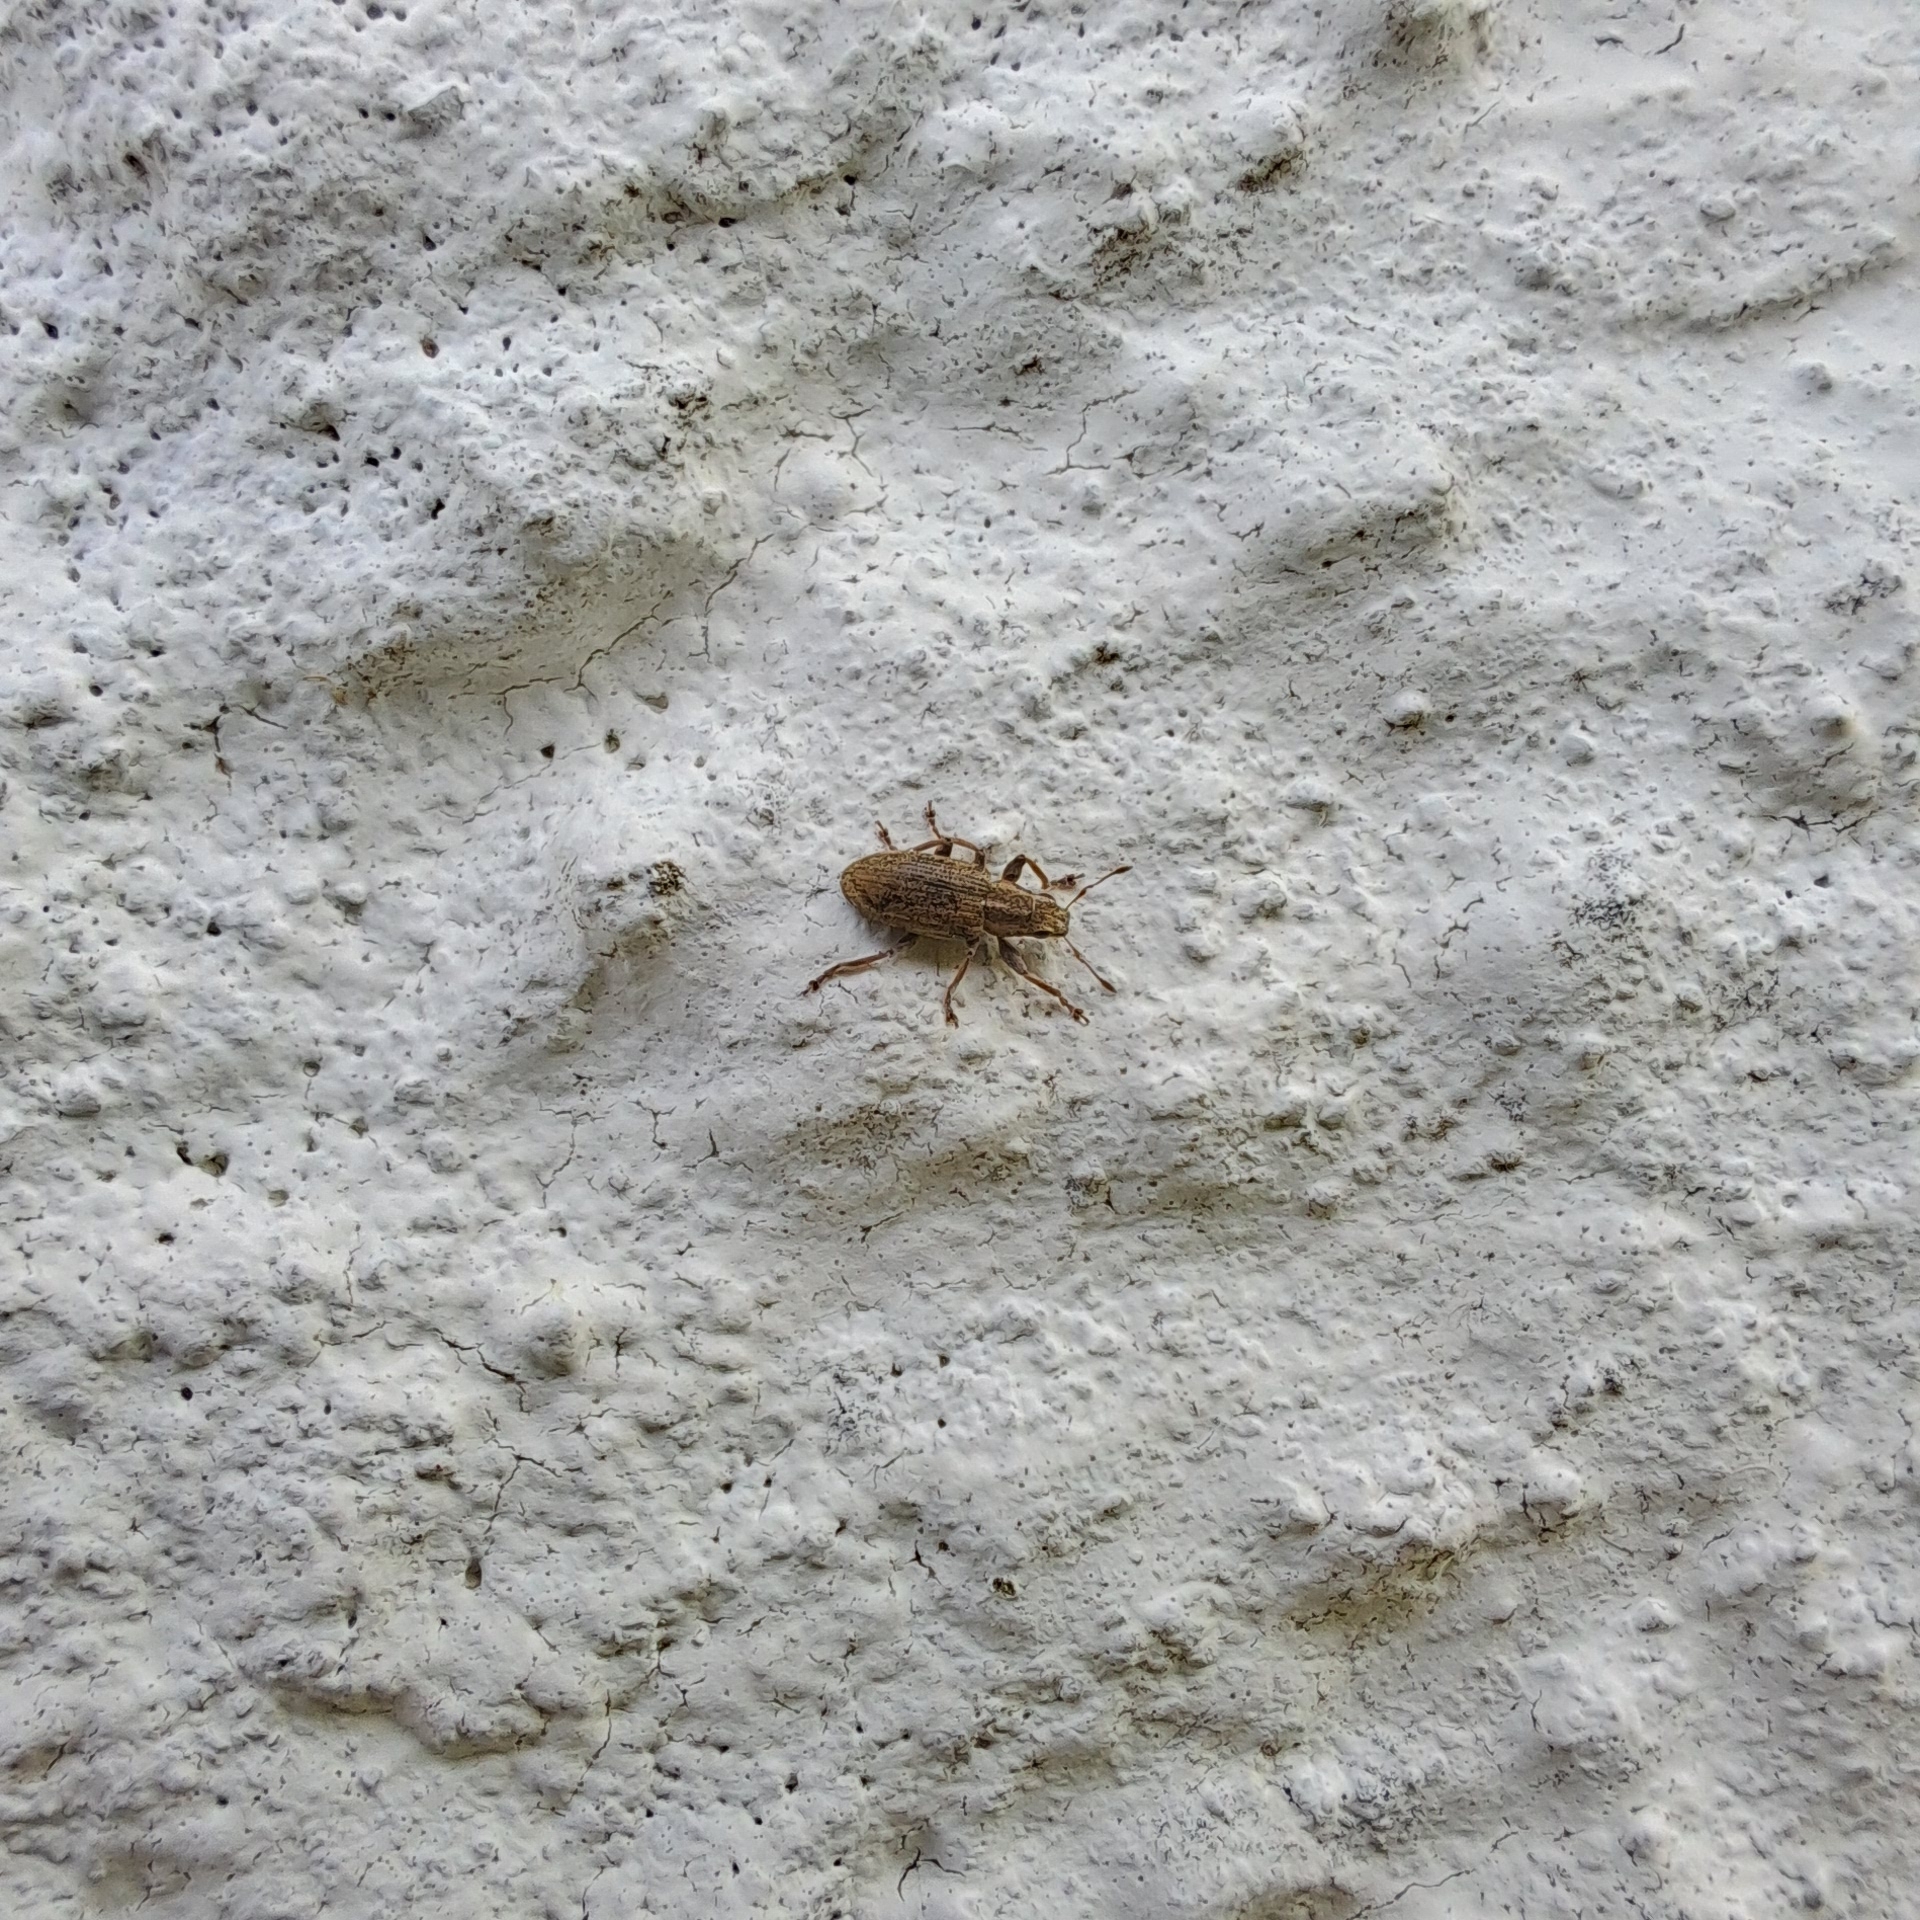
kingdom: Animalia
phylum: Arthropoda
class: Insecta
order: Coleoptera
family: Curculionidae
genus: Sitona
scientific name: Sitona lineatus
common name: Weevil
